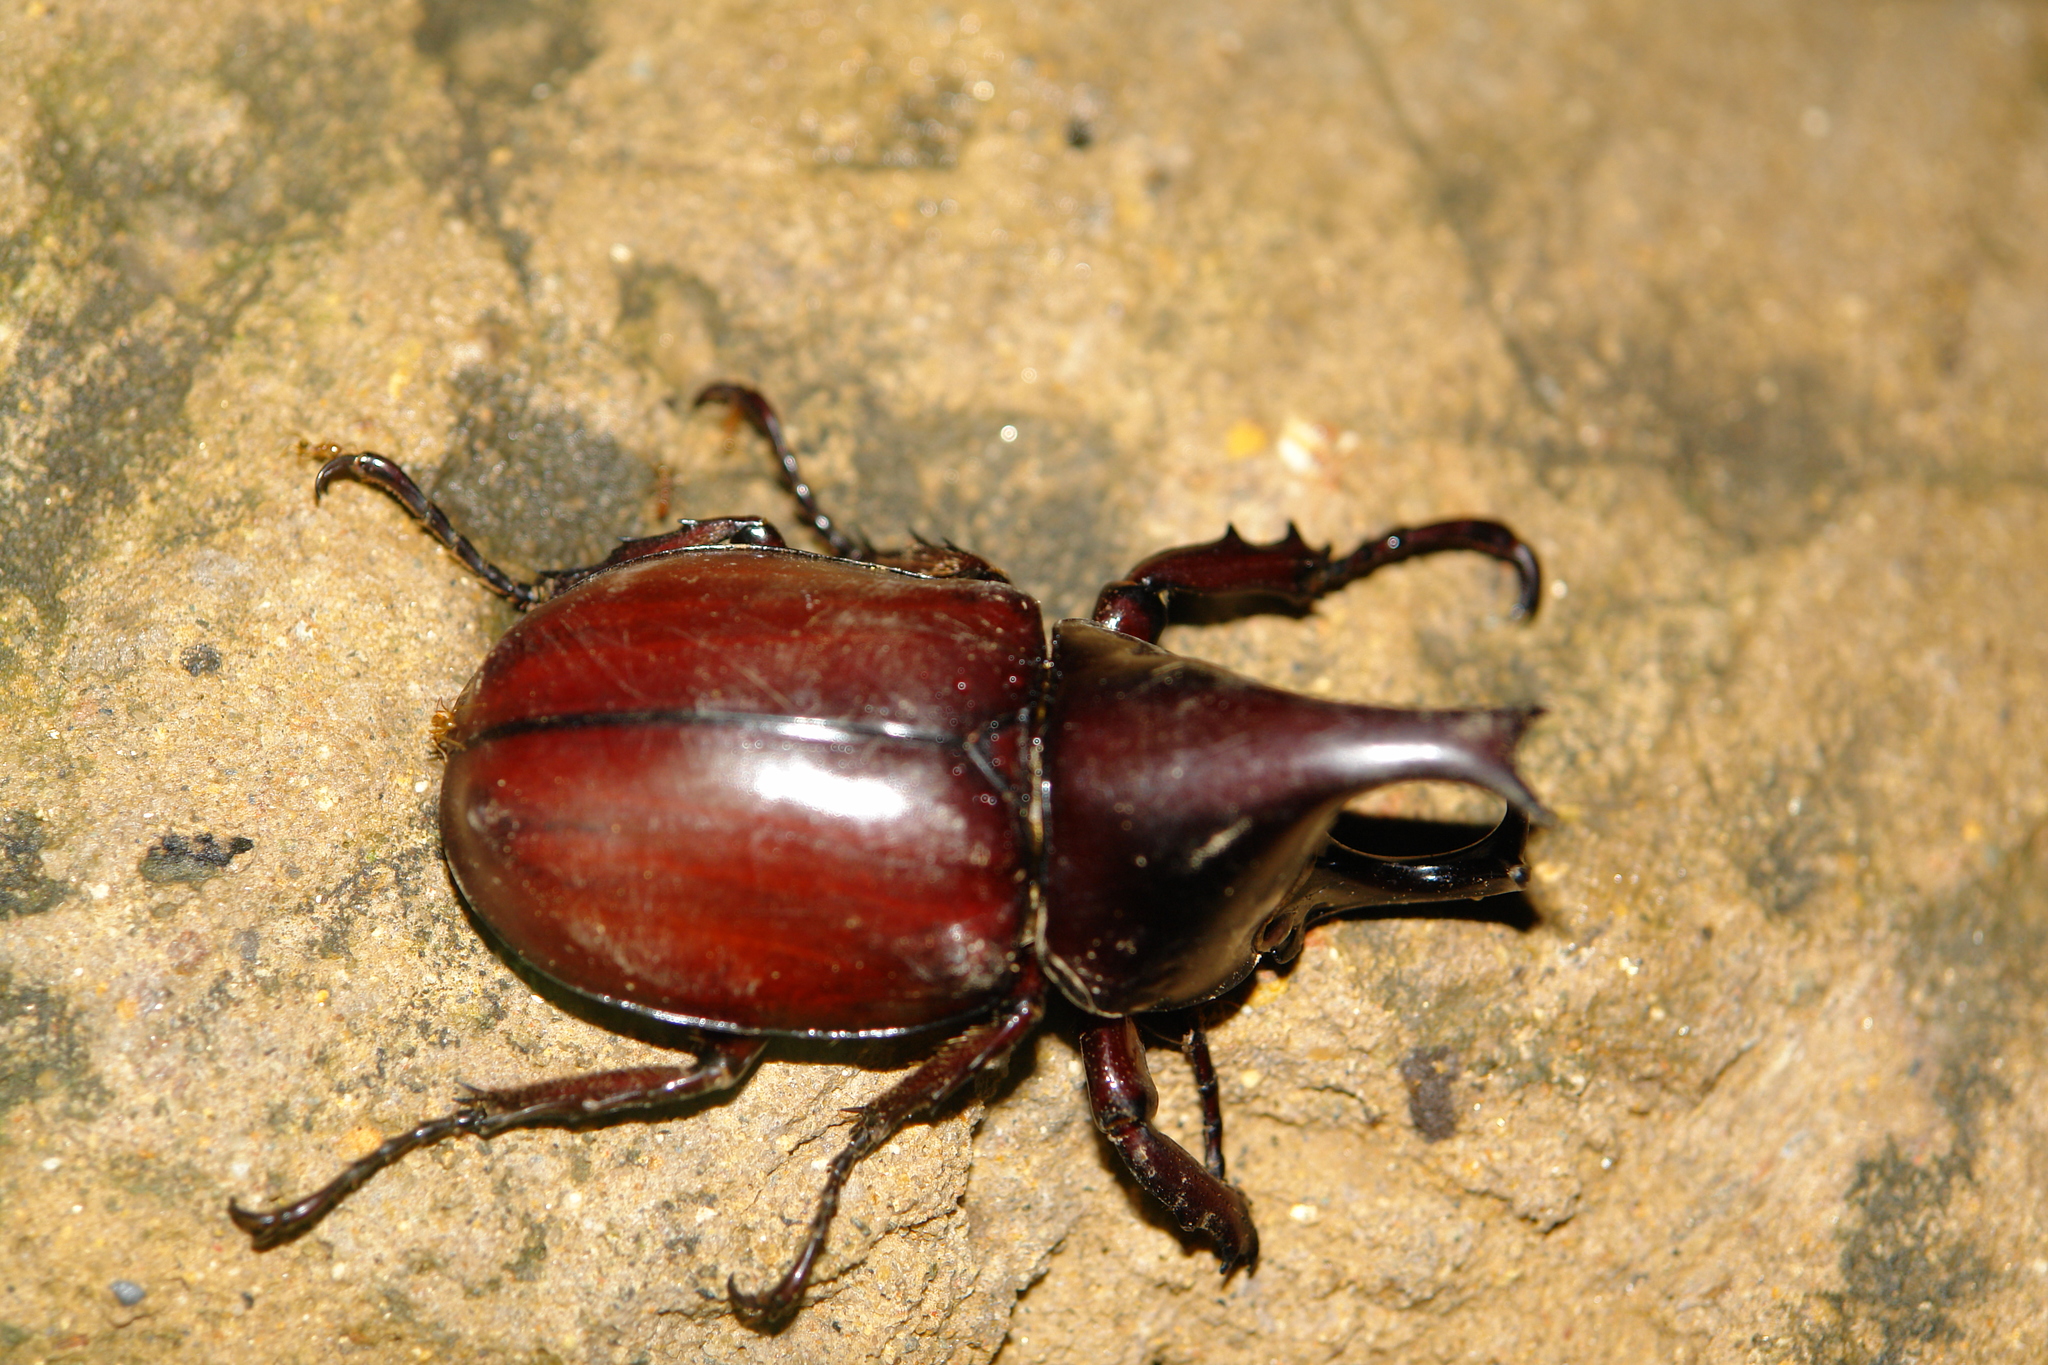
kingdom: Animalia
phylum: Arthropoda
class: Insecta
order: Coleoptera
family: Scarabaeidae
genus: Xylotrupes
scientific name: Xylotrupes socrates
